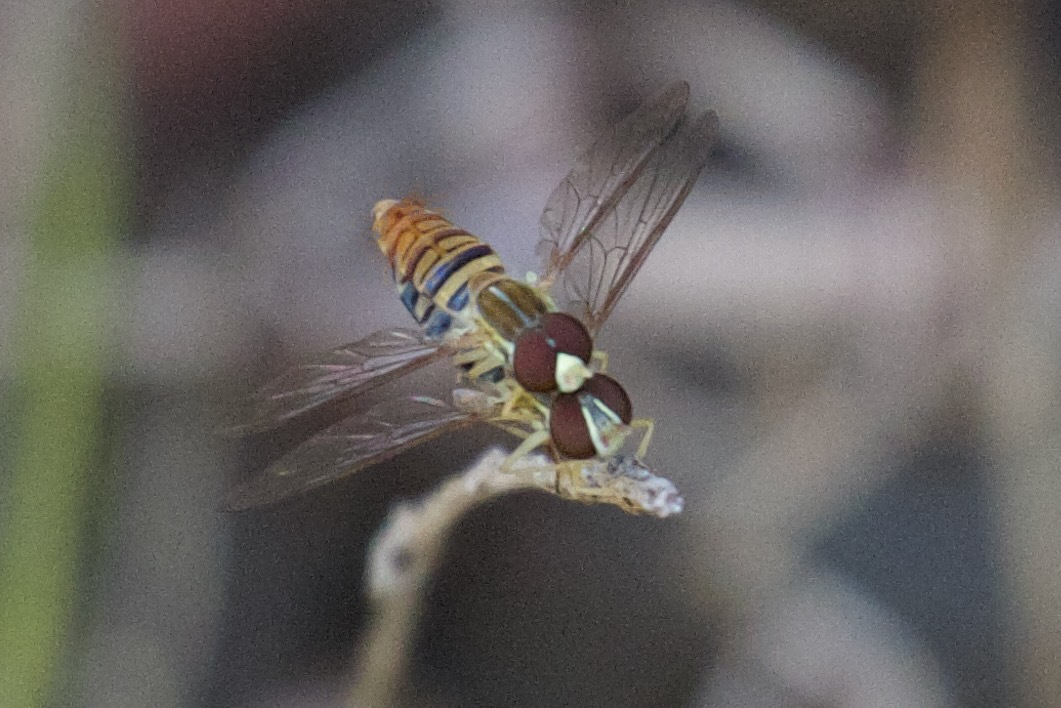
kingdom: Animalia
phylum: Arthropoda
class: Insecta
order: Diptera
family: Syrphidae
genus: Toxomerus
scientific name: Toxomerus politus
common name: Maize calligrapher
